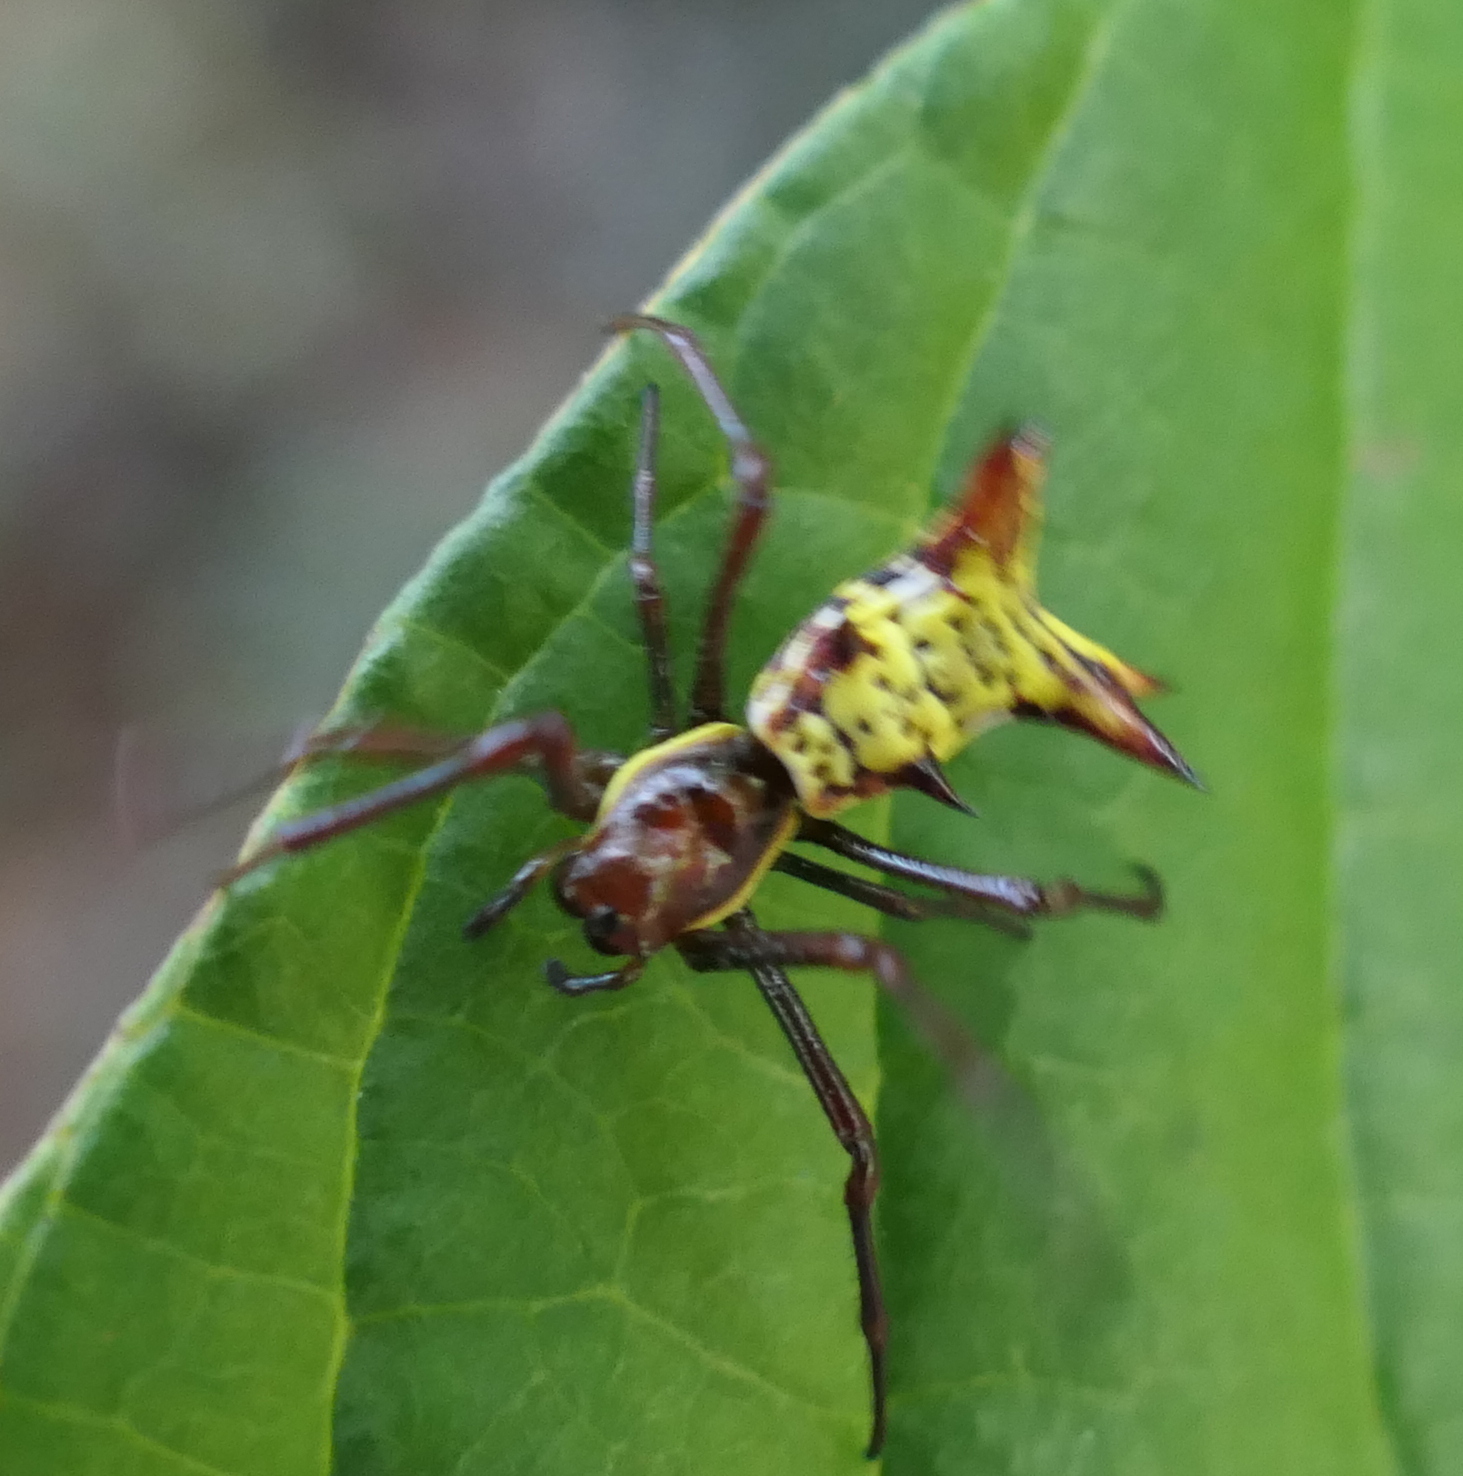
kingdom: Animalia
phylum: Arthropoda
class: Arachnida
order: Araneae
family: Araneidae
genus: Micrathena
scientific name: Micrathena fissispina
